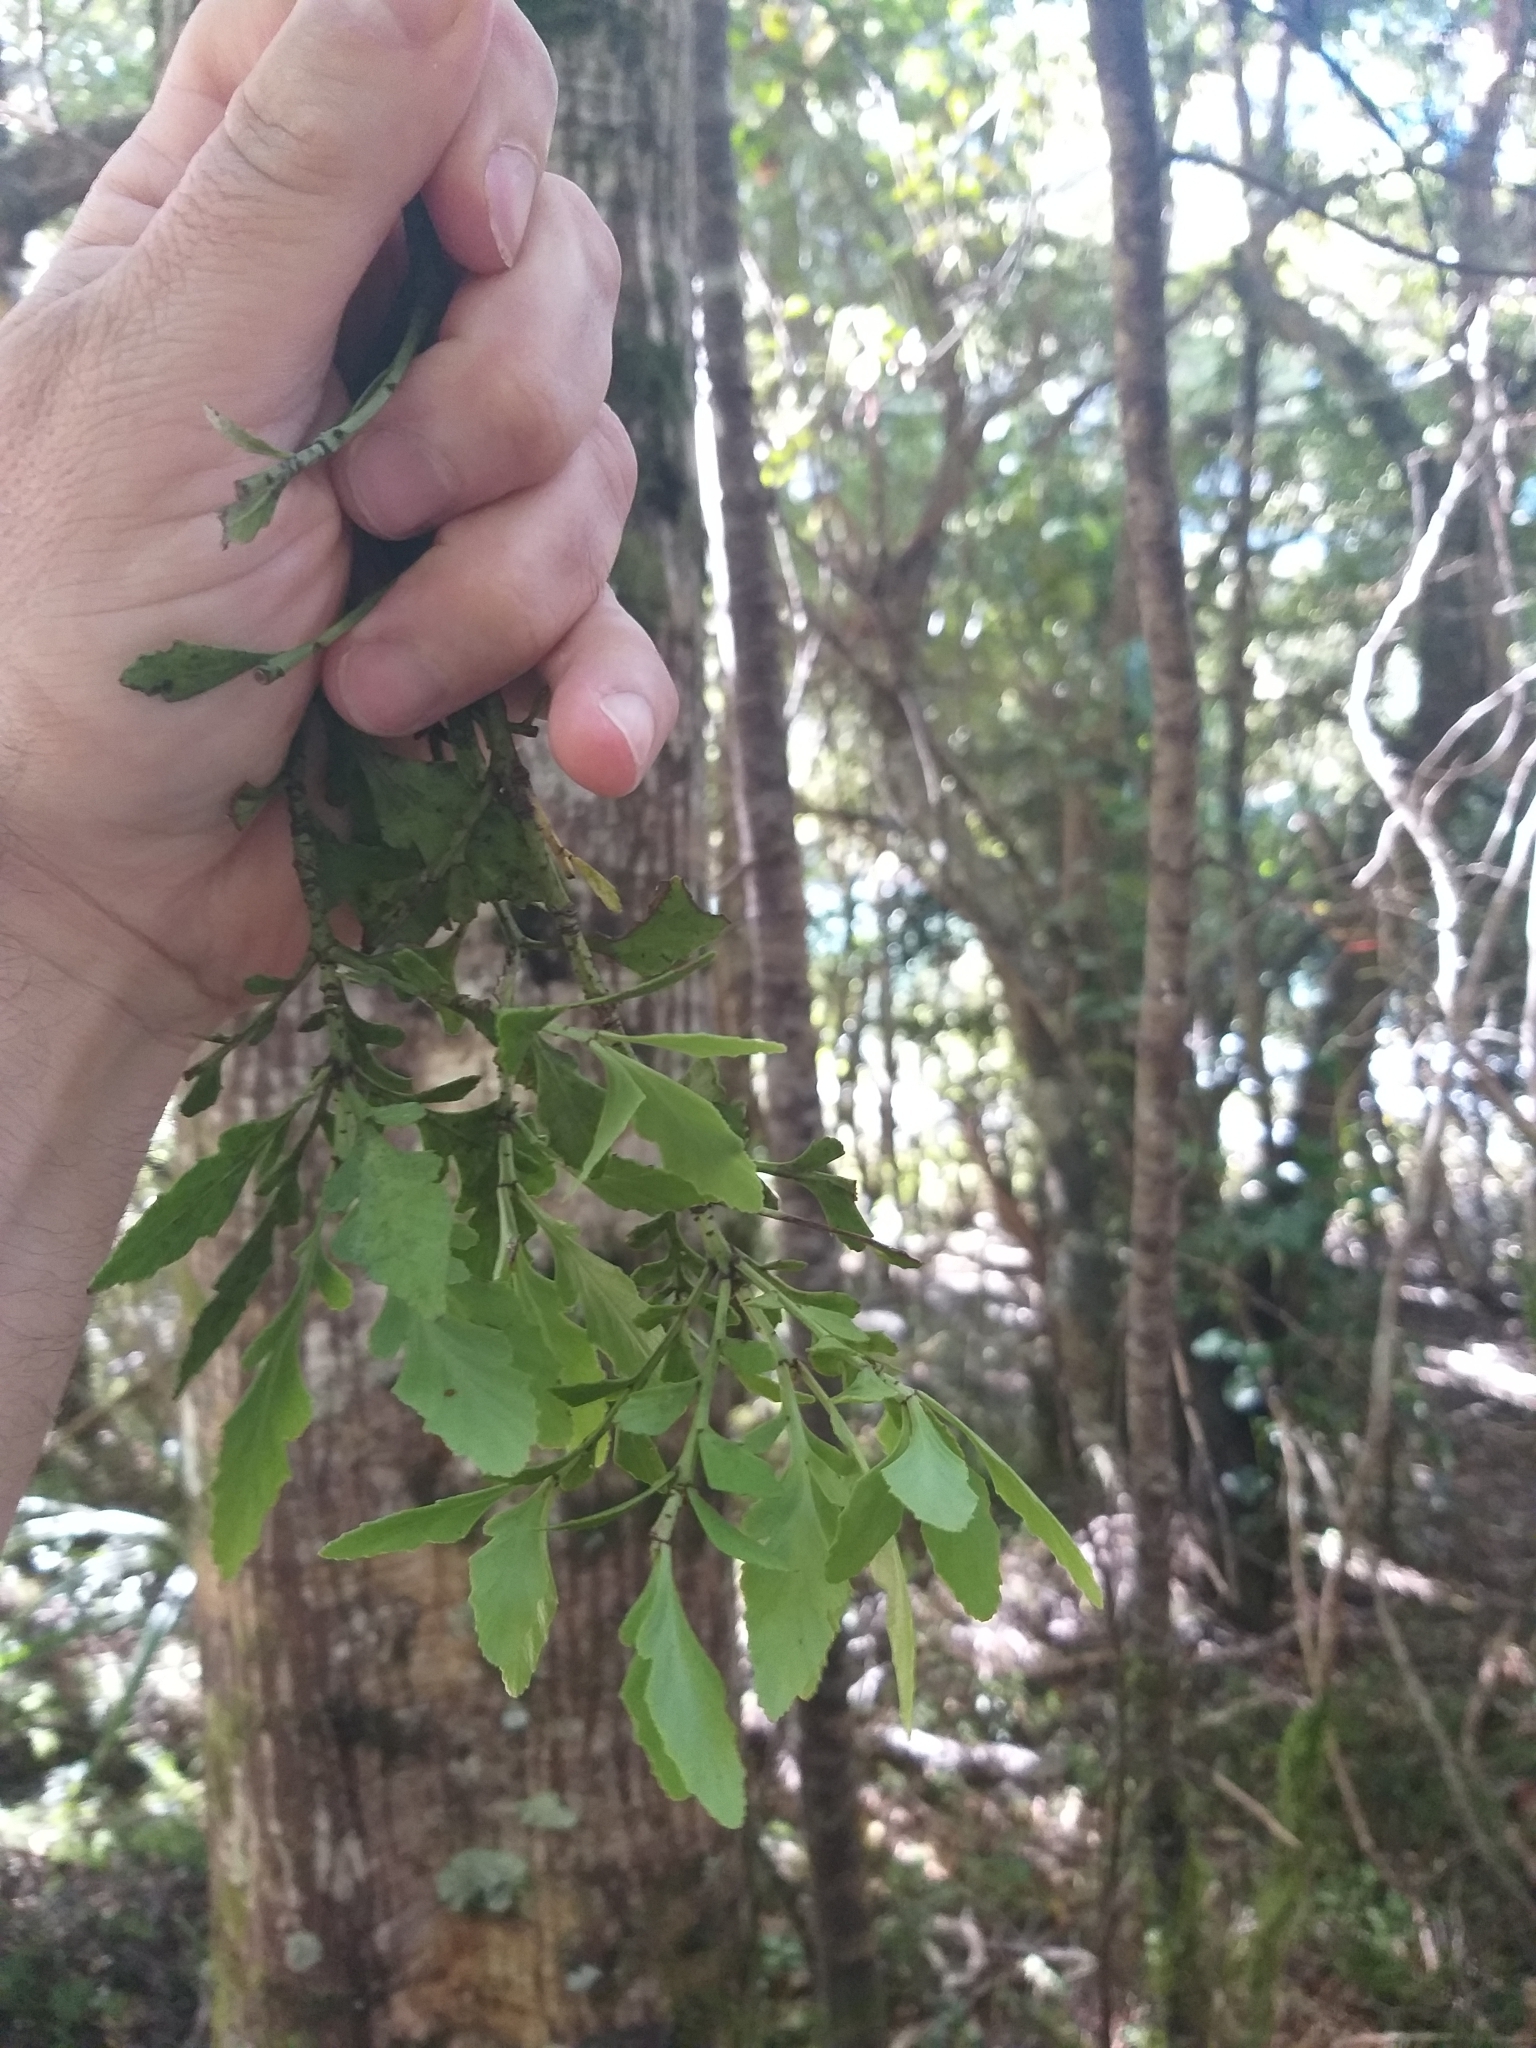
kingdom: Plantae
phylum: Tracheophyta
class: Pinopsida
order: Pinales
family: Phyllocladaceae
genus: Phyllocladus
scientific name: Phyllocladus trichomanoides
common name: Celery pine
